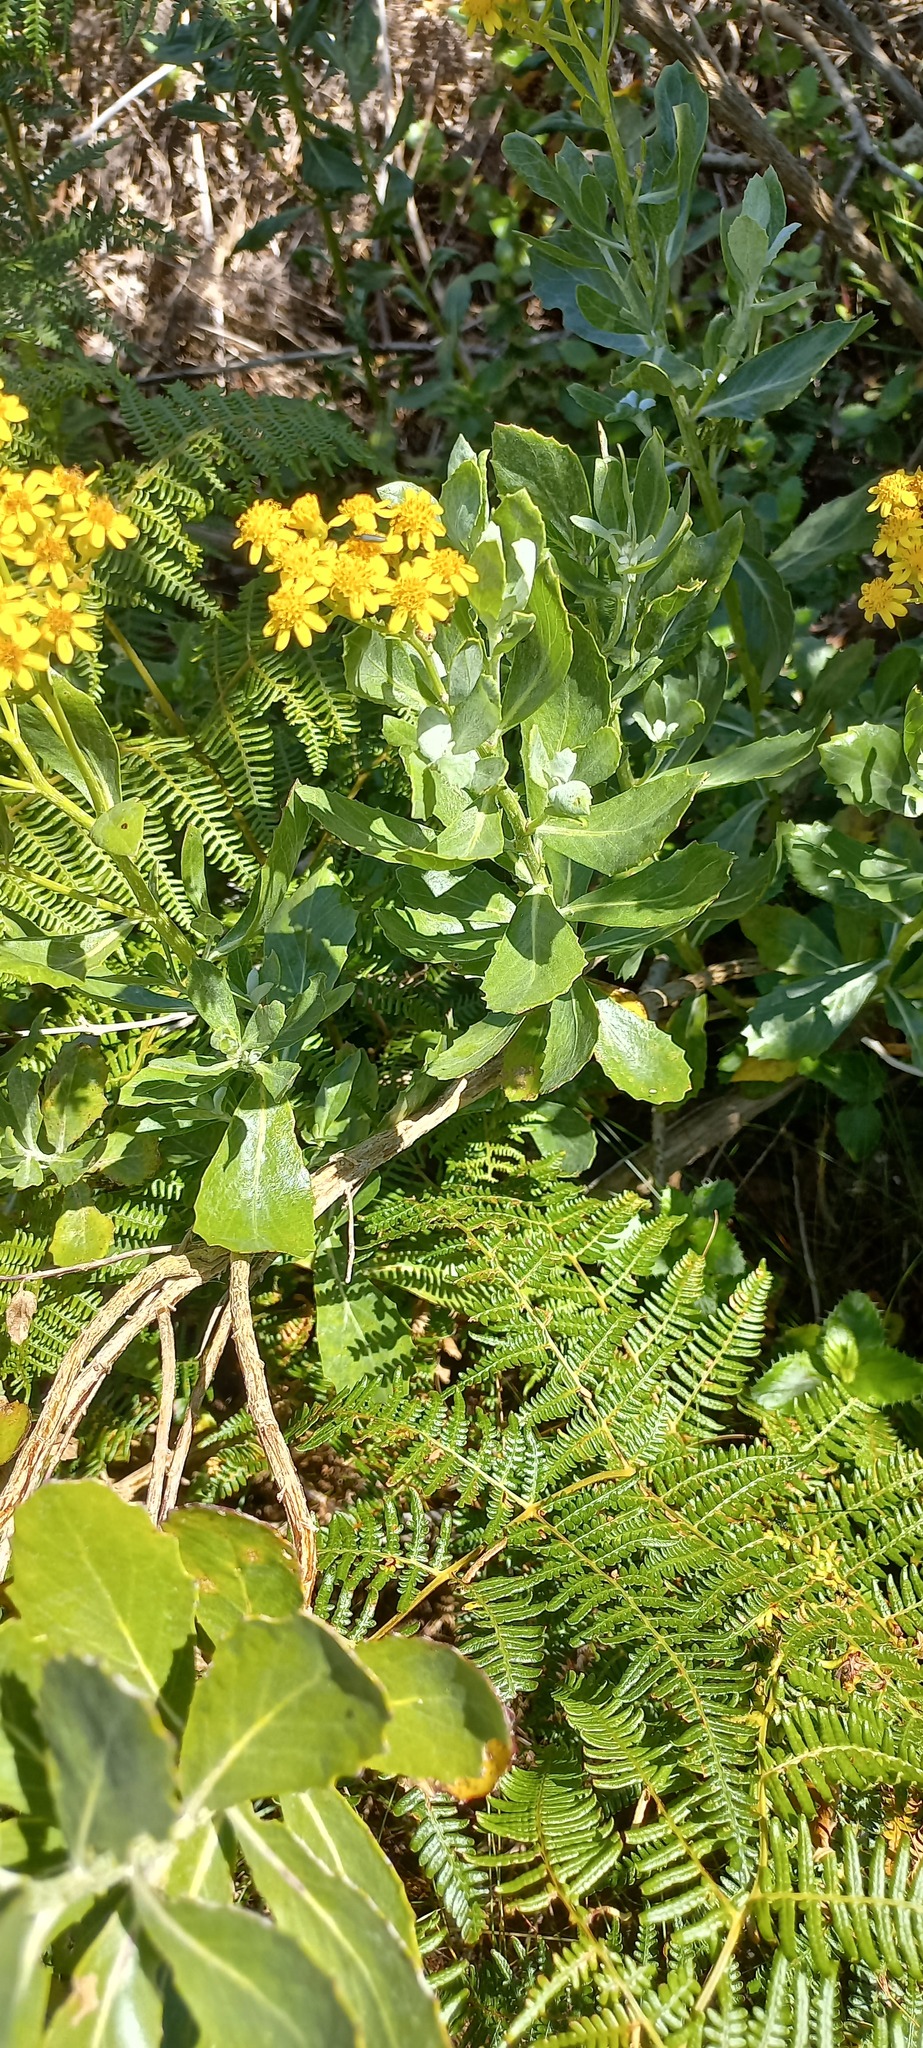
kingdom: Plantae
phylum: Tracheophyta
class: Magnoliopsida
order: Asterales
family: Asteraceae
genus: Senecio
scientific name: Senecio halimifolius
